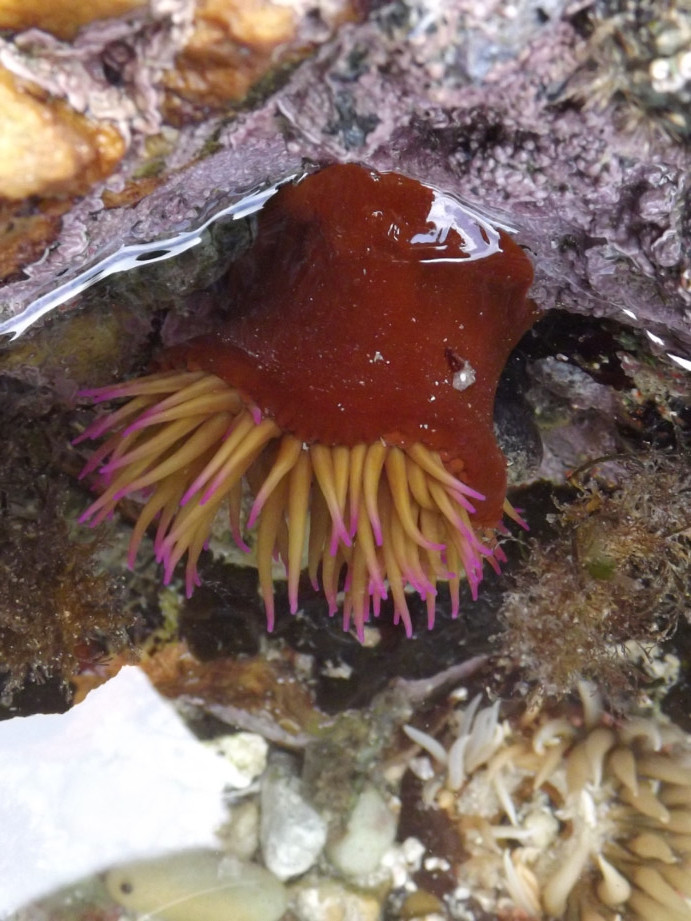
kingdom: Animalia
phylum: Cnidaria
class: Anthozoa
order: Actiniaria
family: Actiniidae
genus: Pseudactinia
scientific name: Pseudactinia flagellifera
